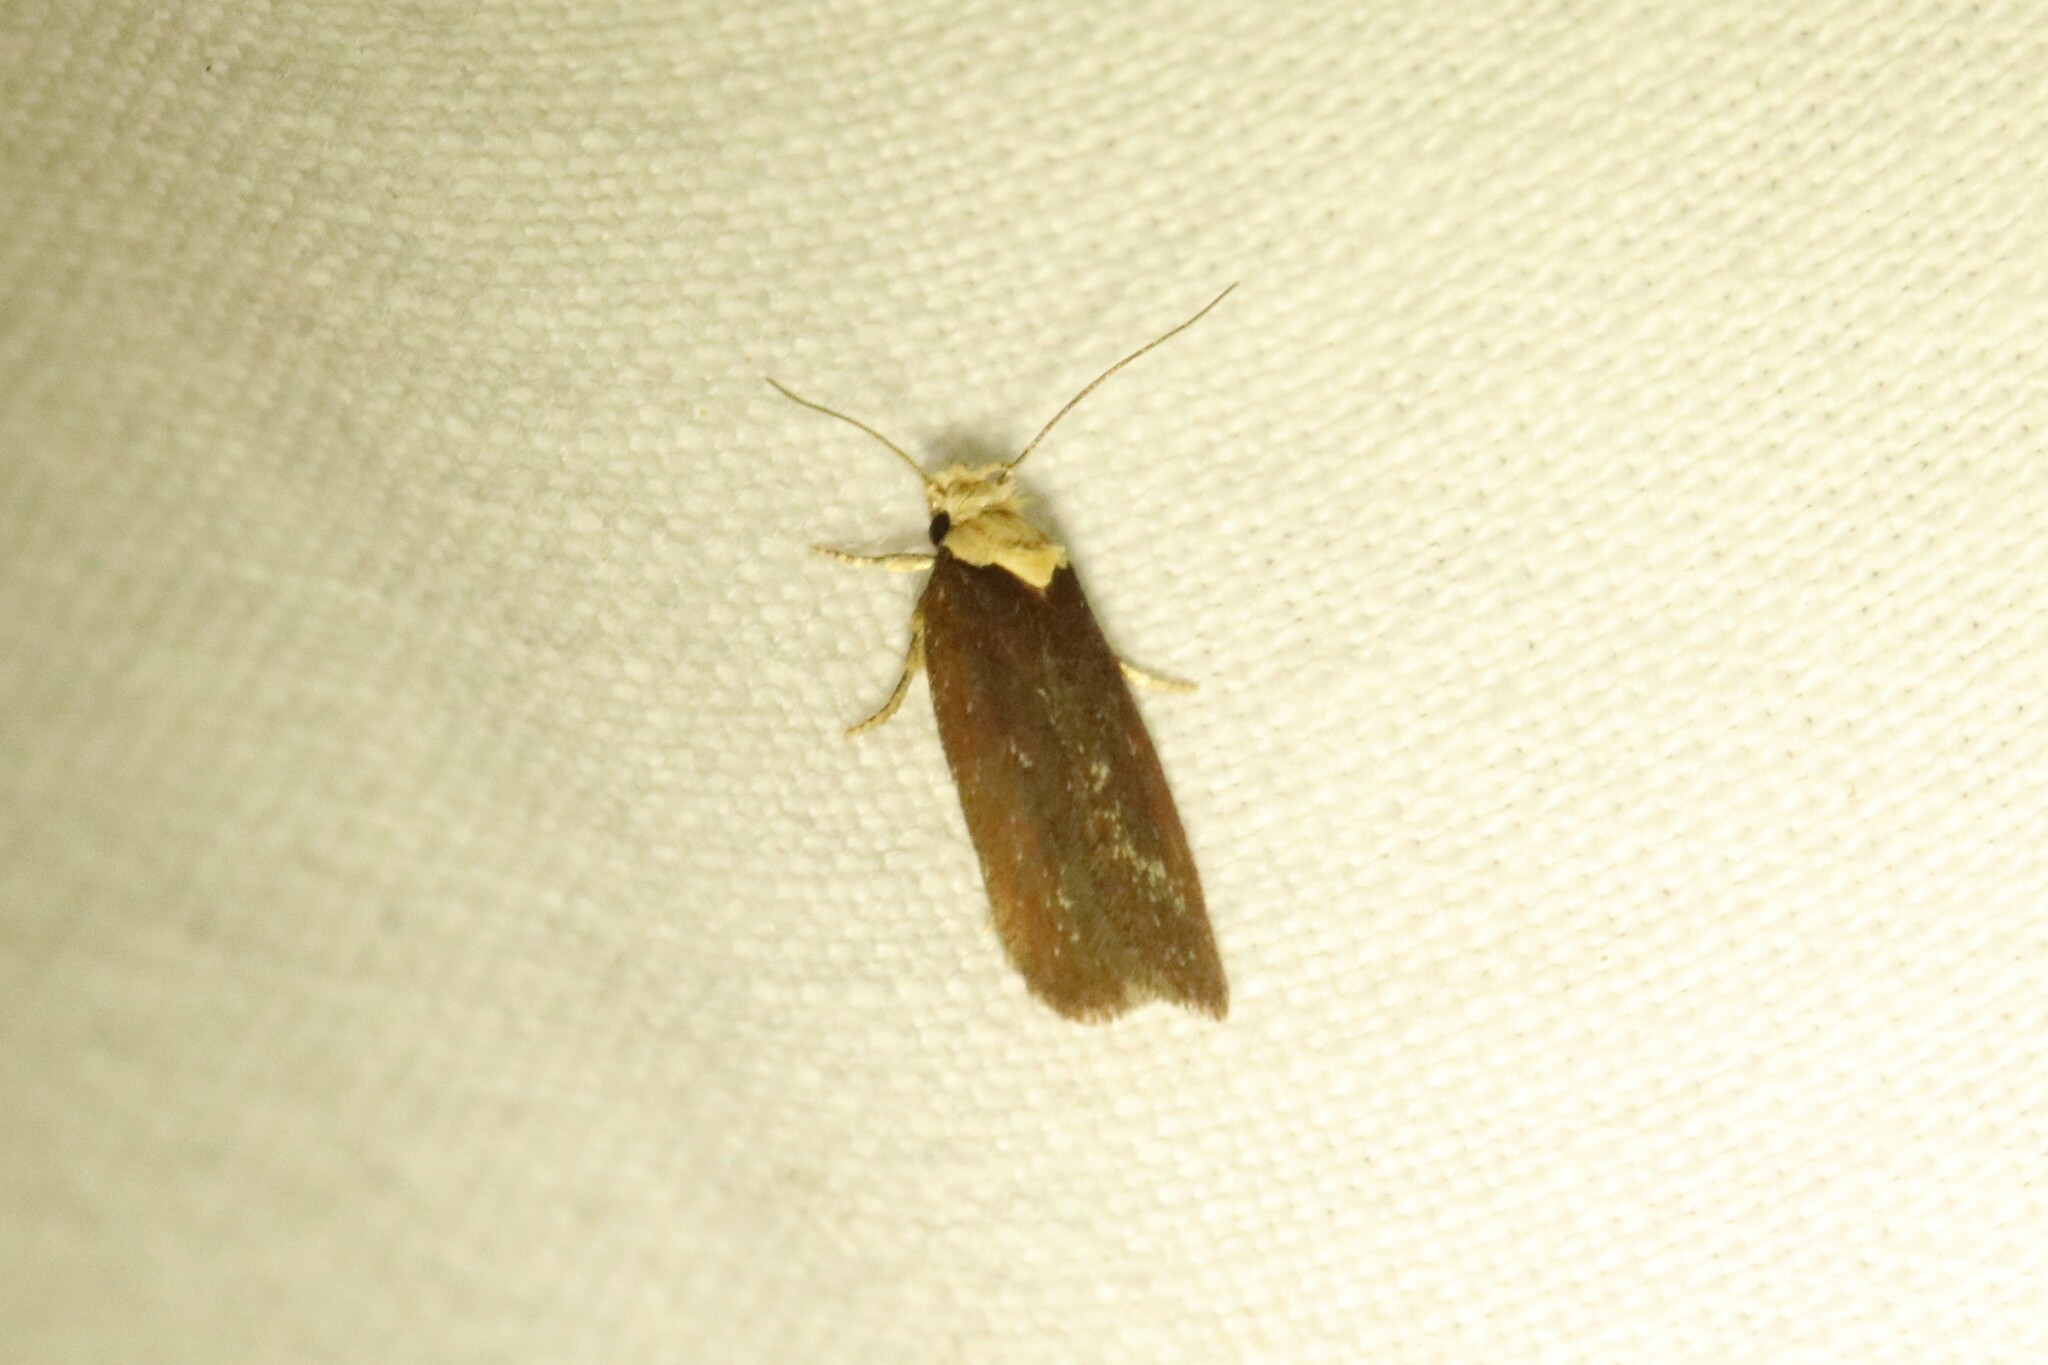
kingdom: Animalia
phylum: Arthropoda
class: Insecta
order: Lepidoptera
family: Depressariidae
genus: Depressaria
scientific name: Depressaria depressana
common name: Lost flat-body
